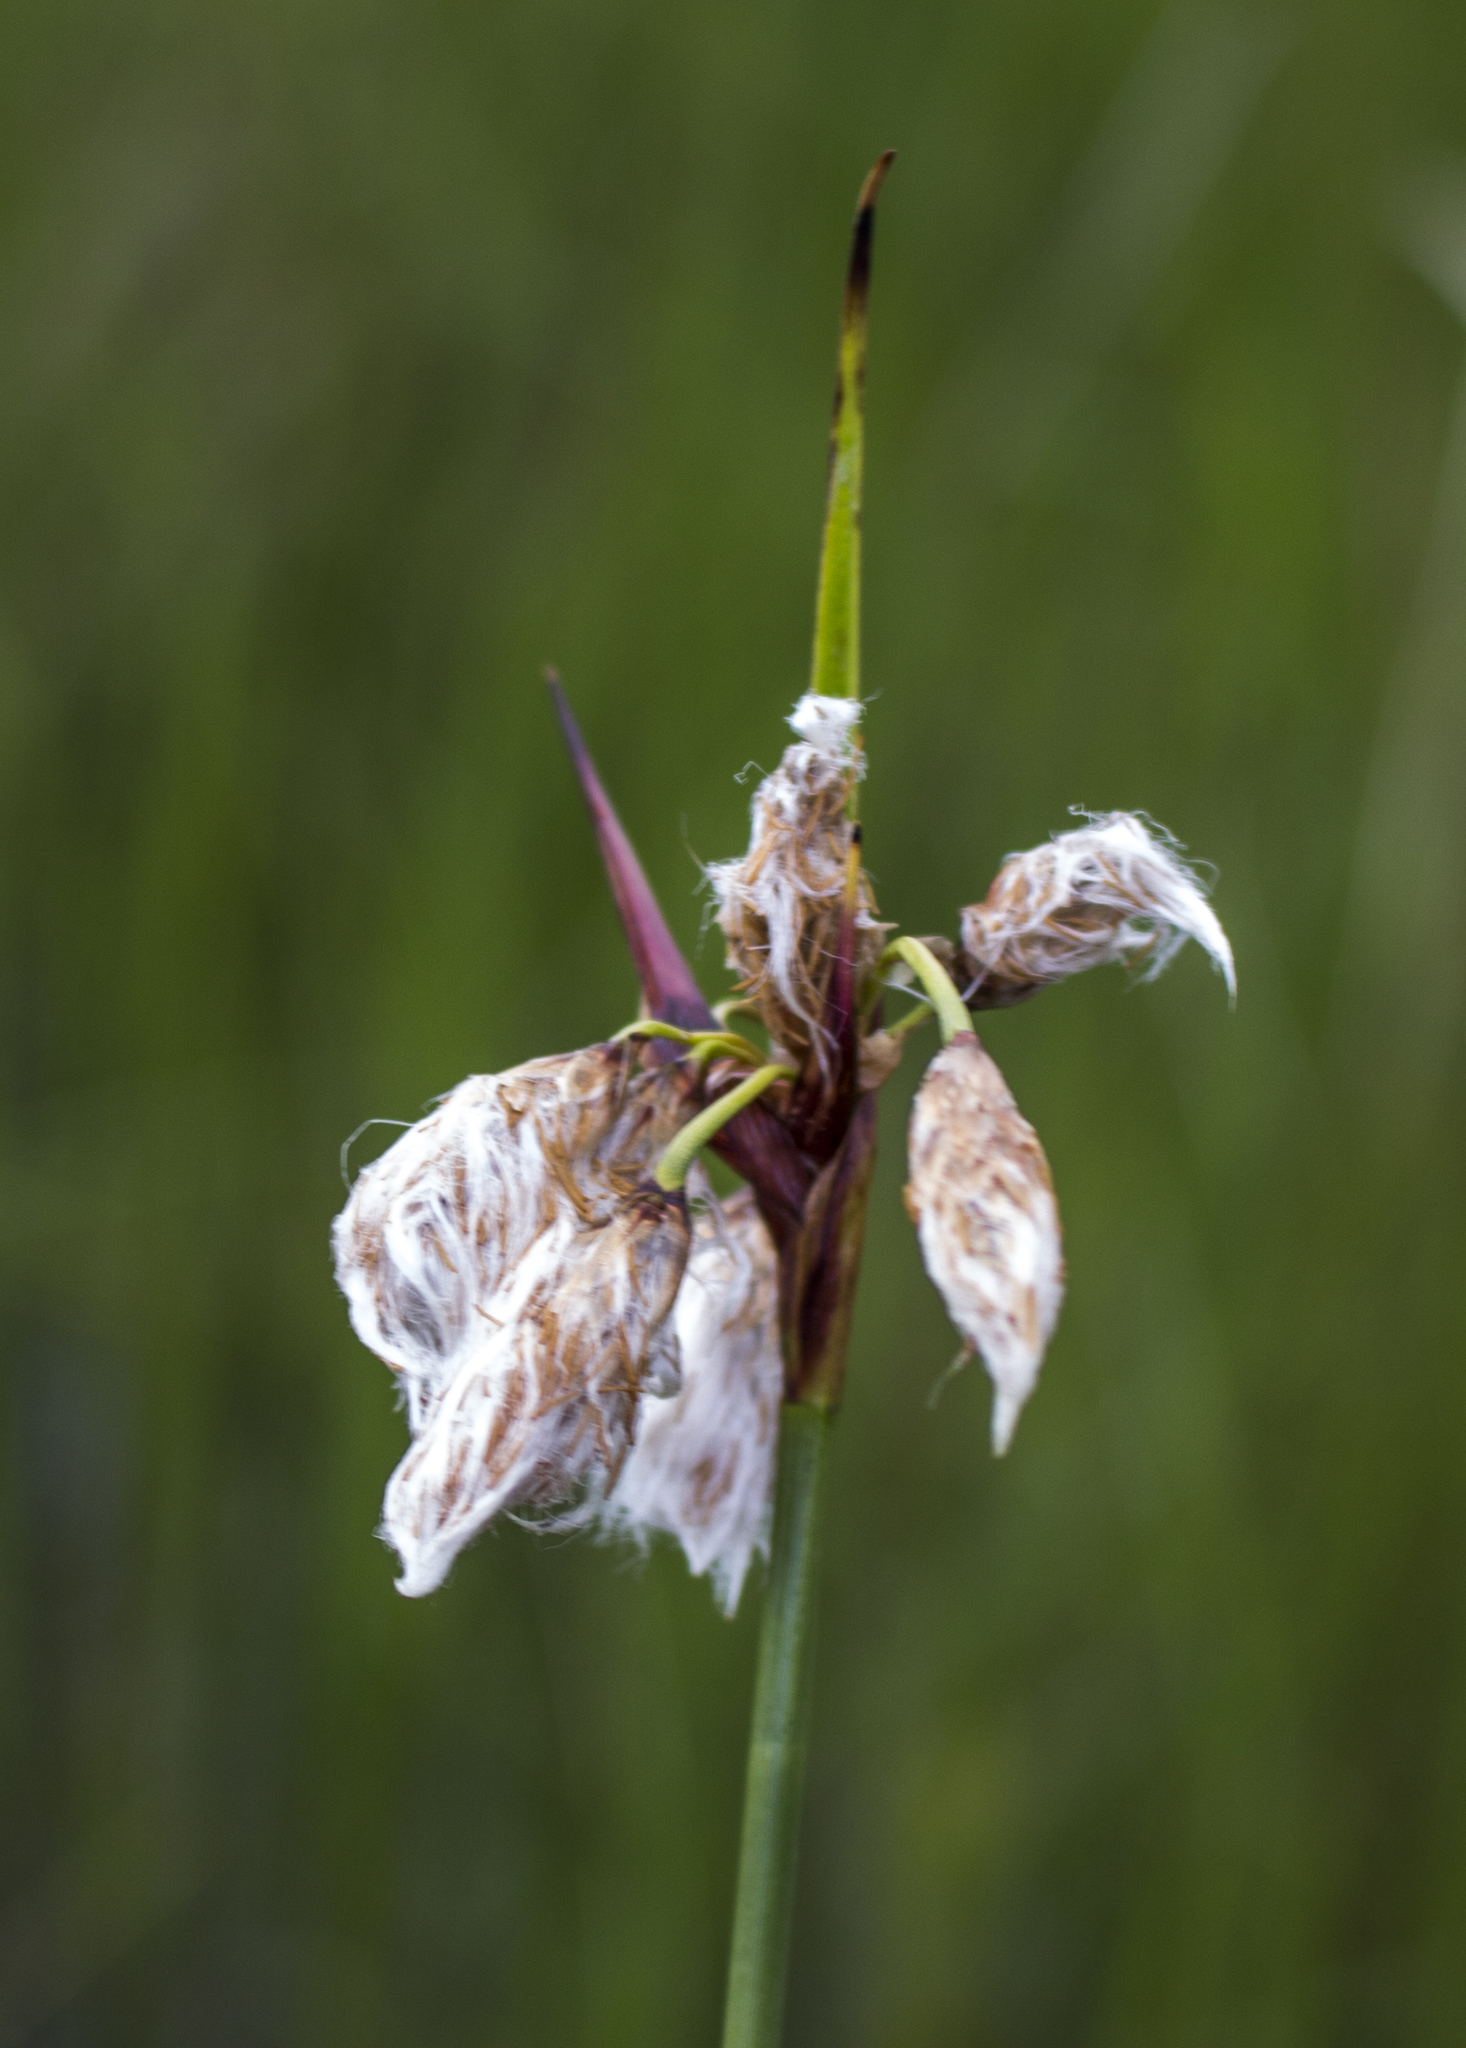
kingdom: Plantae
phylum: Tracheophyta
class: Liliopsida
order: Poales
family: Cyperaceae
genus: Eriophorum
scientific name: Eriophorum angustifolium
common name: Common cottongrass
